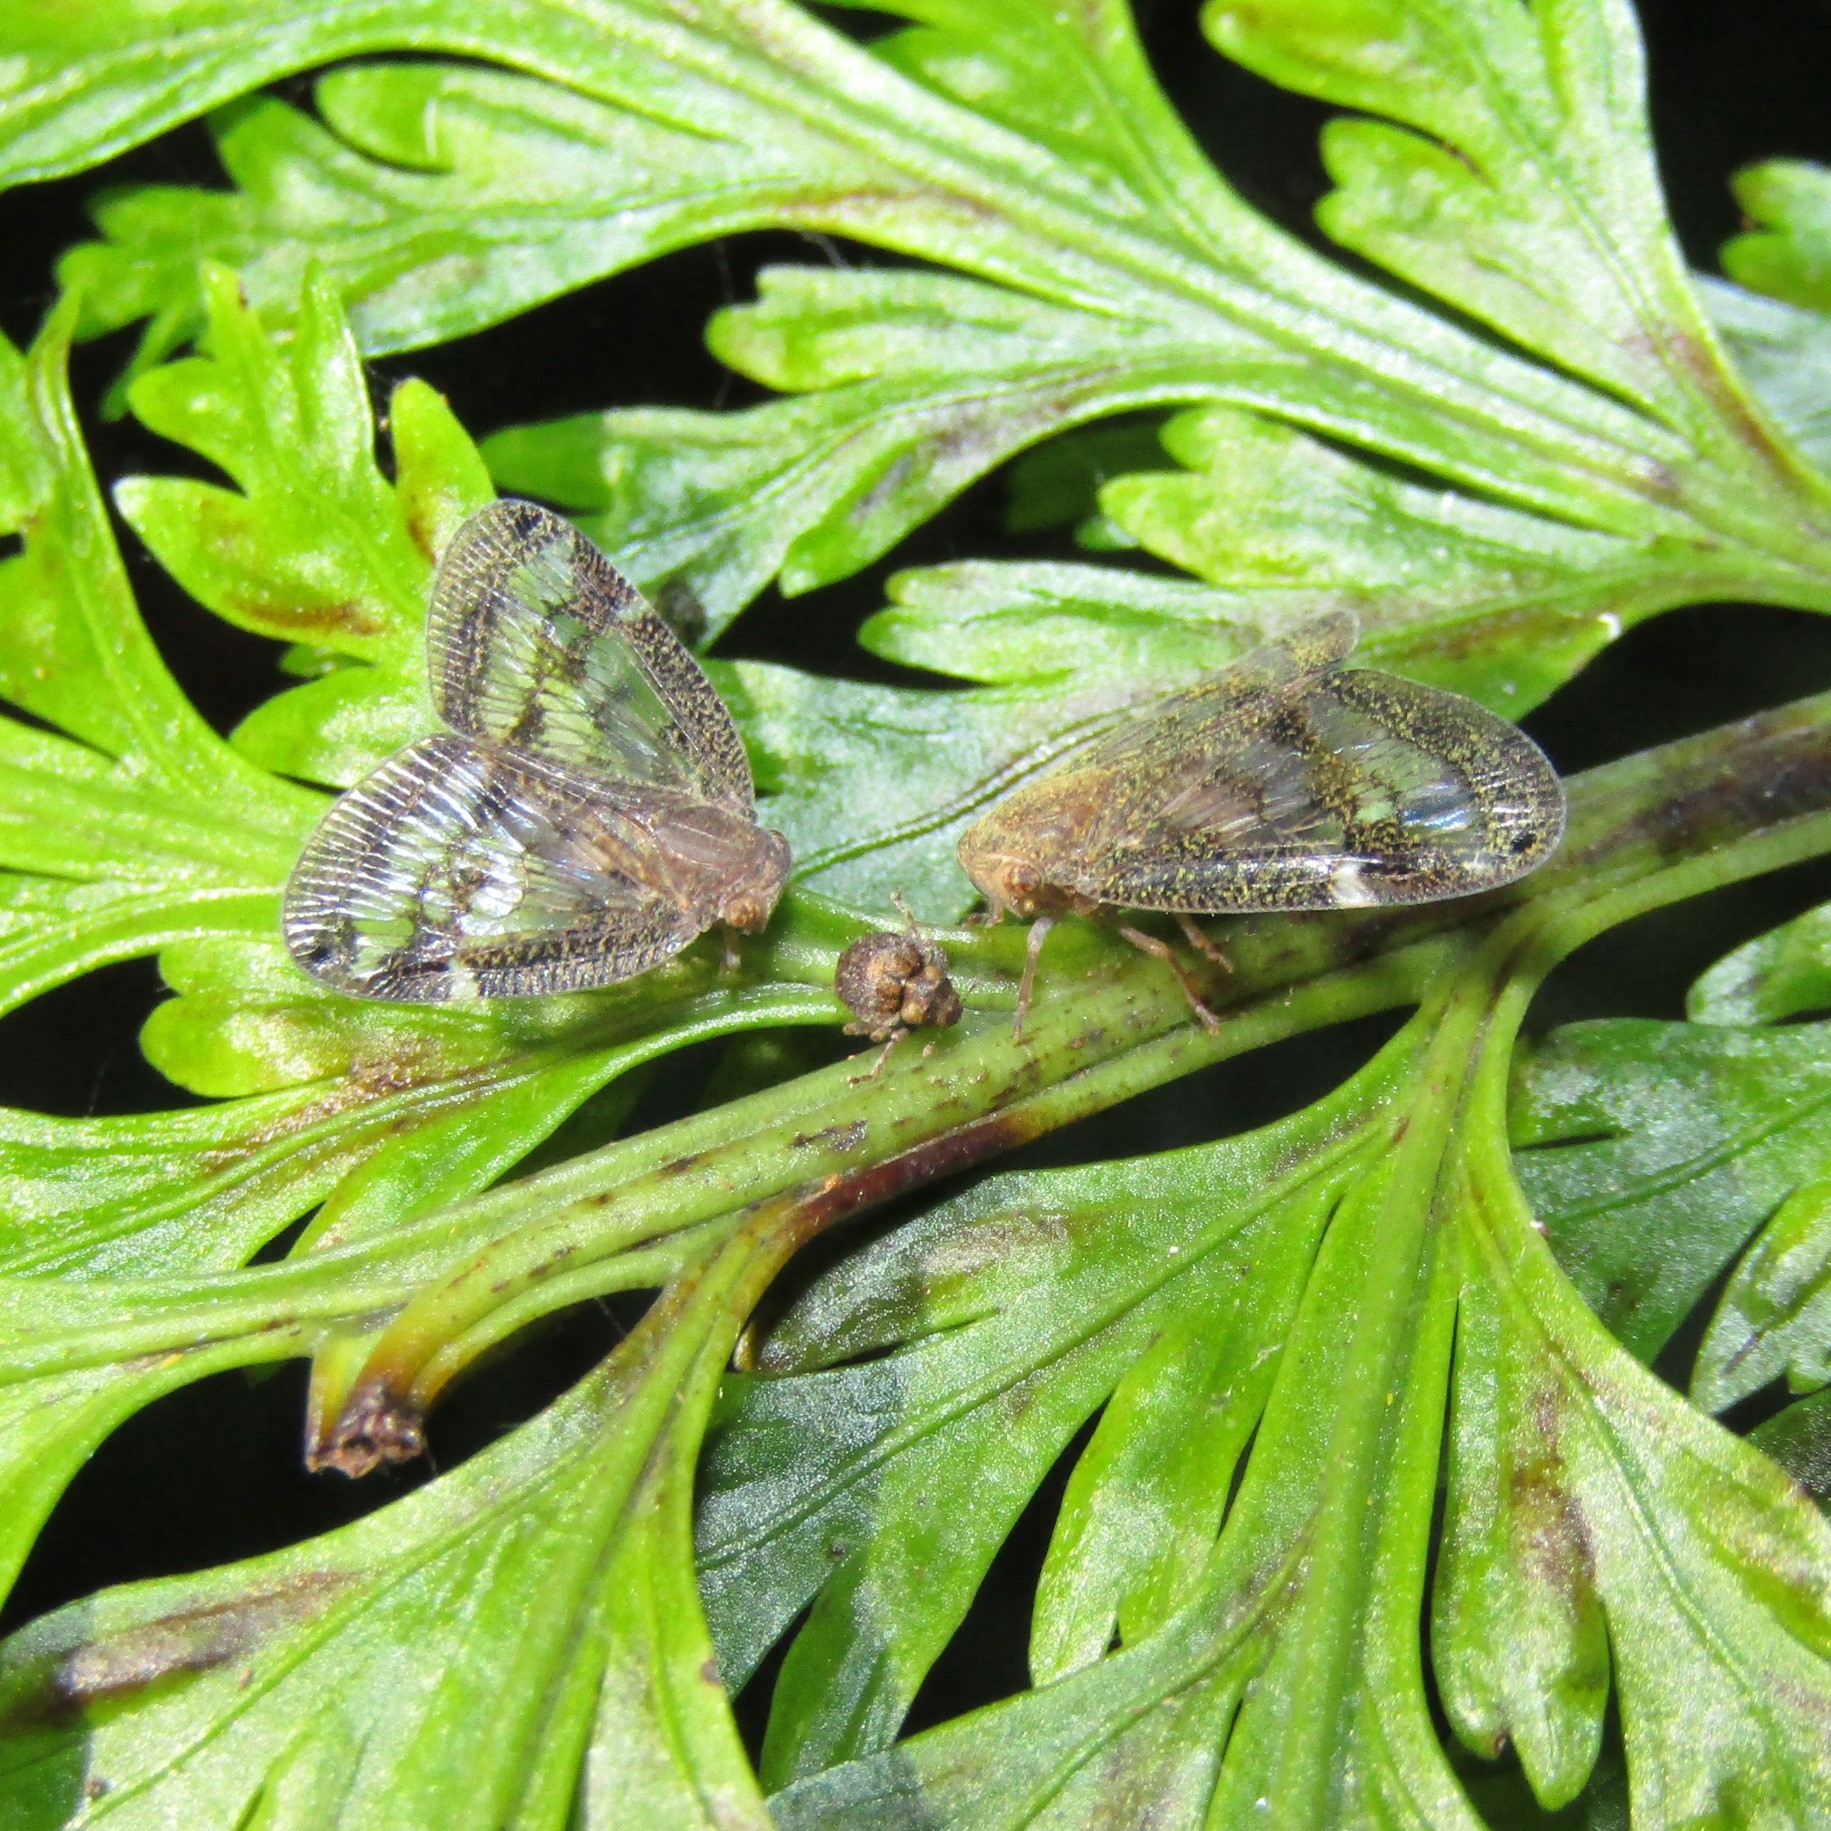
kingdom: Animalia
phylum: Arthropoda
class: Insecta
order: Hemiptera
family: Ricaniidae
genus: Scolypopa
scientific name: Scolypopa australis
